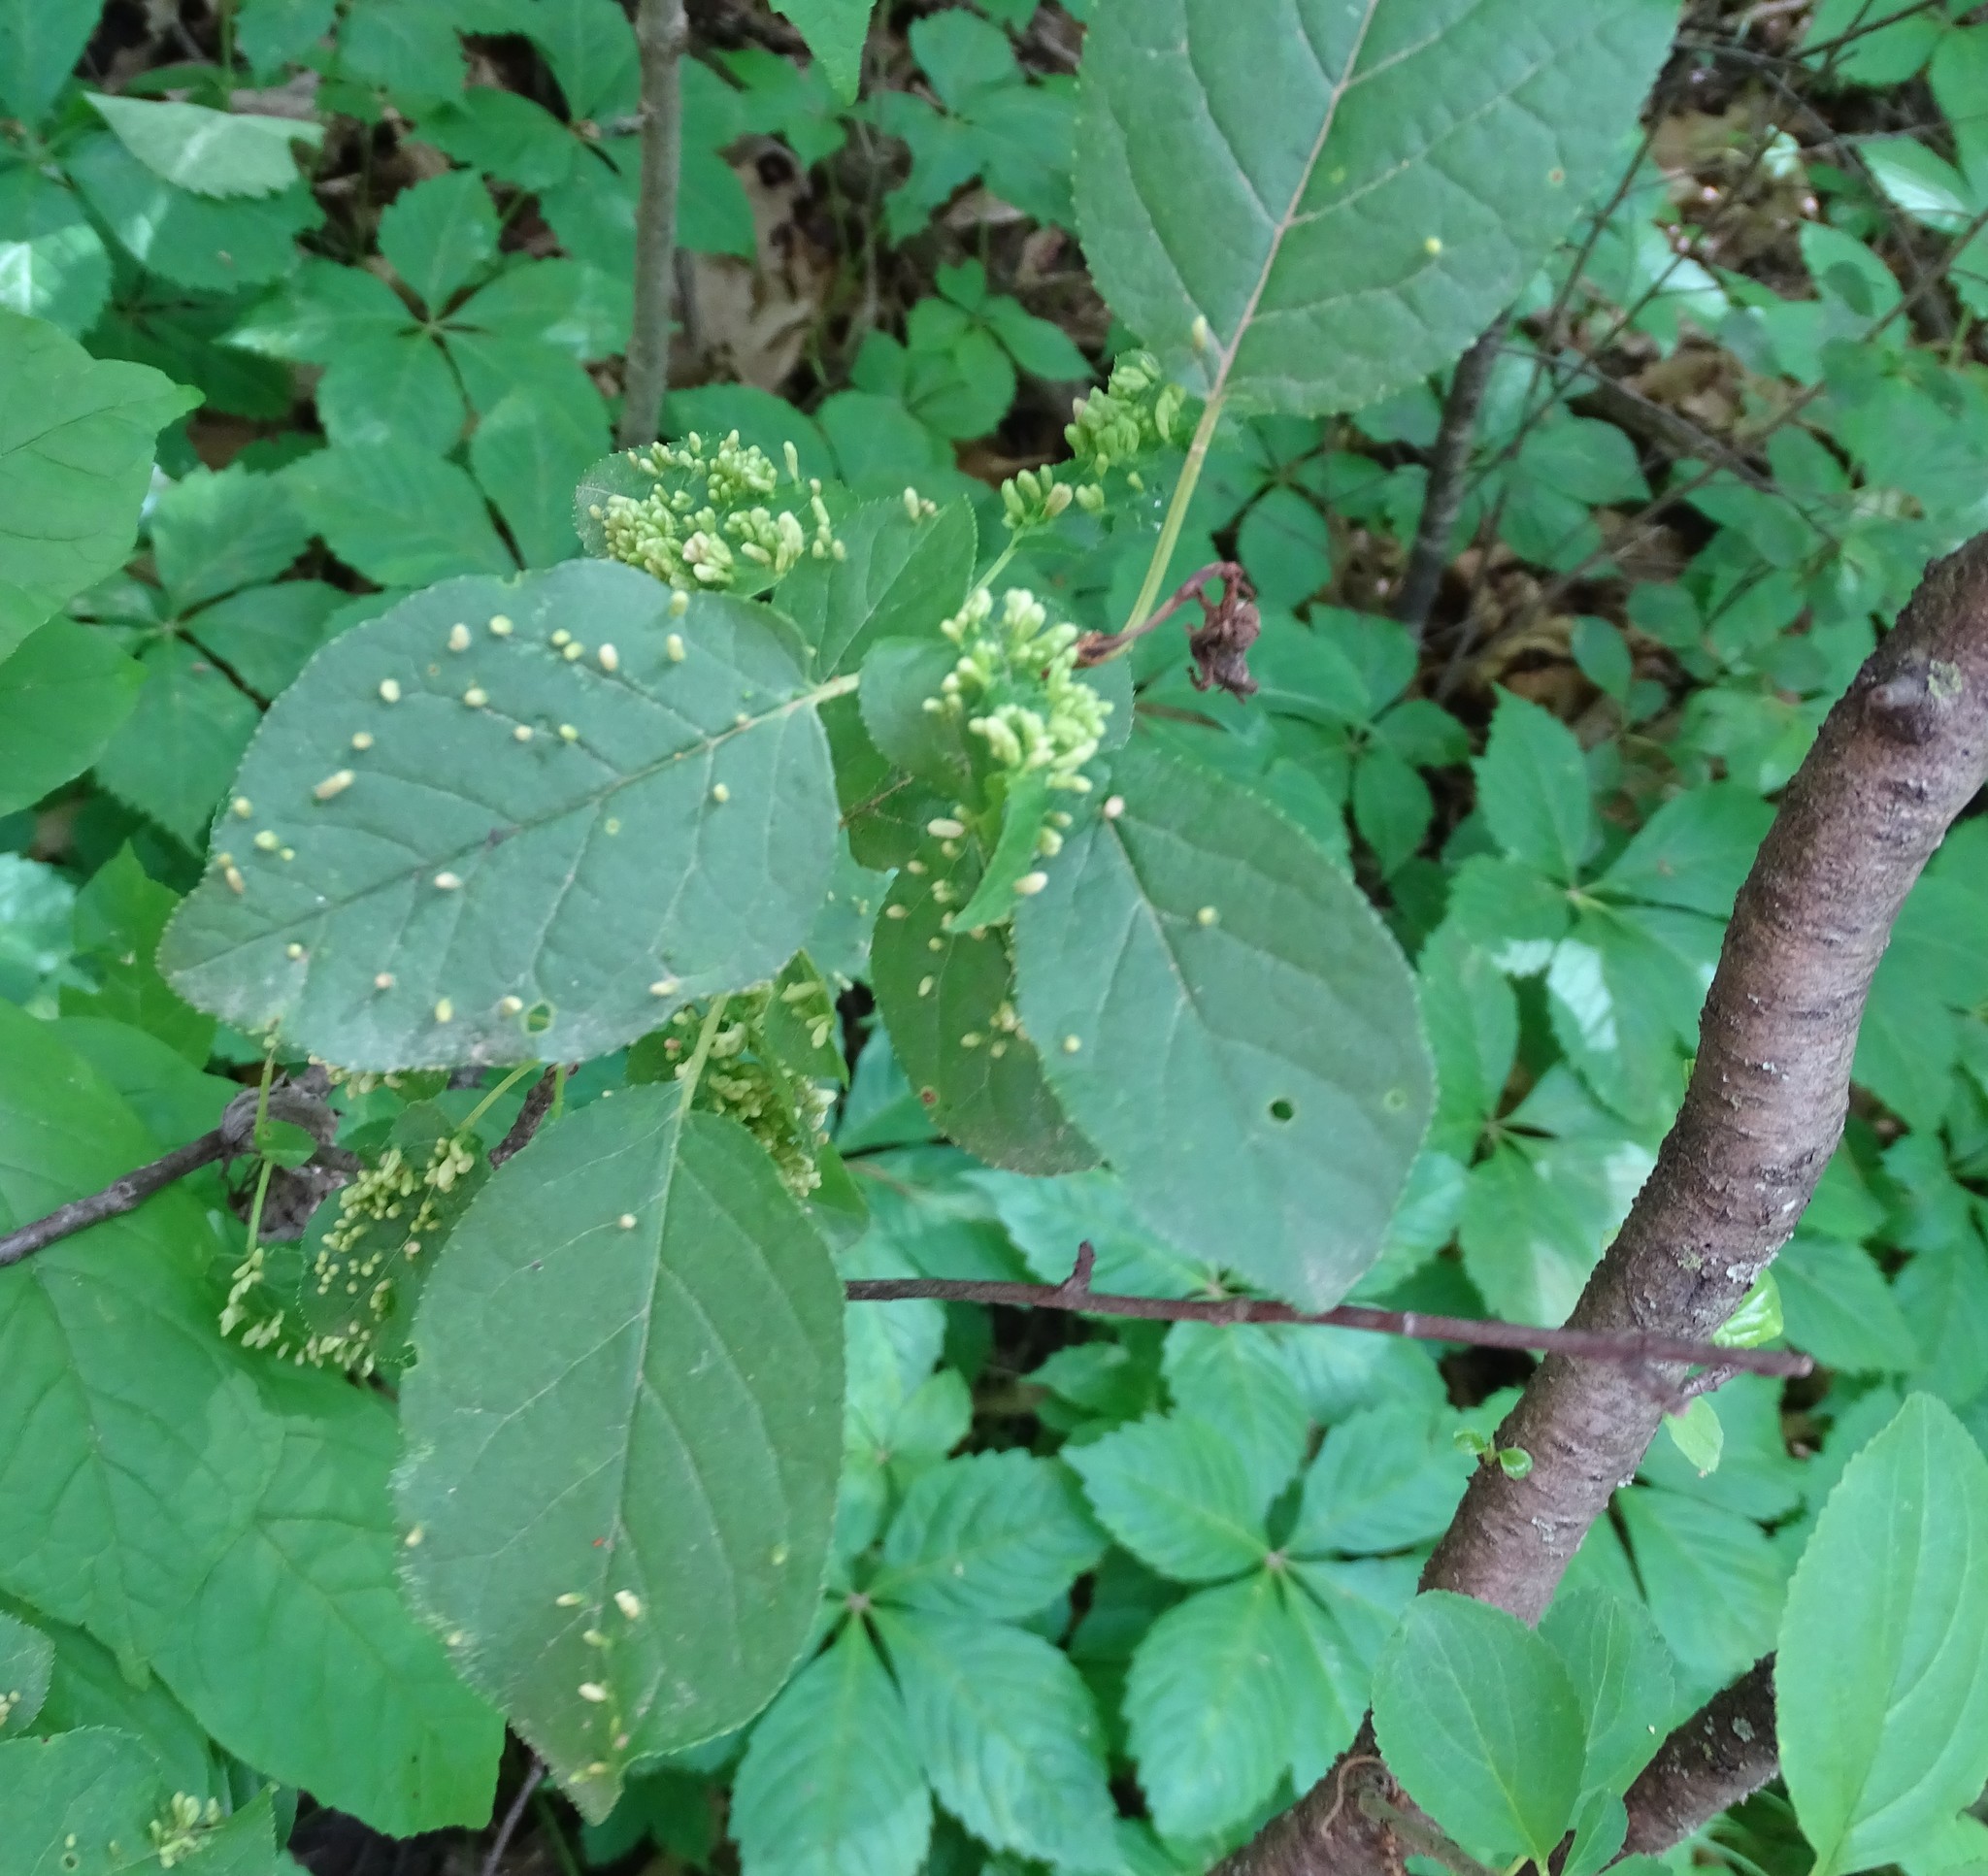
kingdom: Animalia
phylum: Arthropoda
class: Arachnida
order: Trombidiformes
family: Eriophyidae
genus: Eriophyes
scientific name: Eriophyes emarginatae
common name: Plum leaf gall mite
